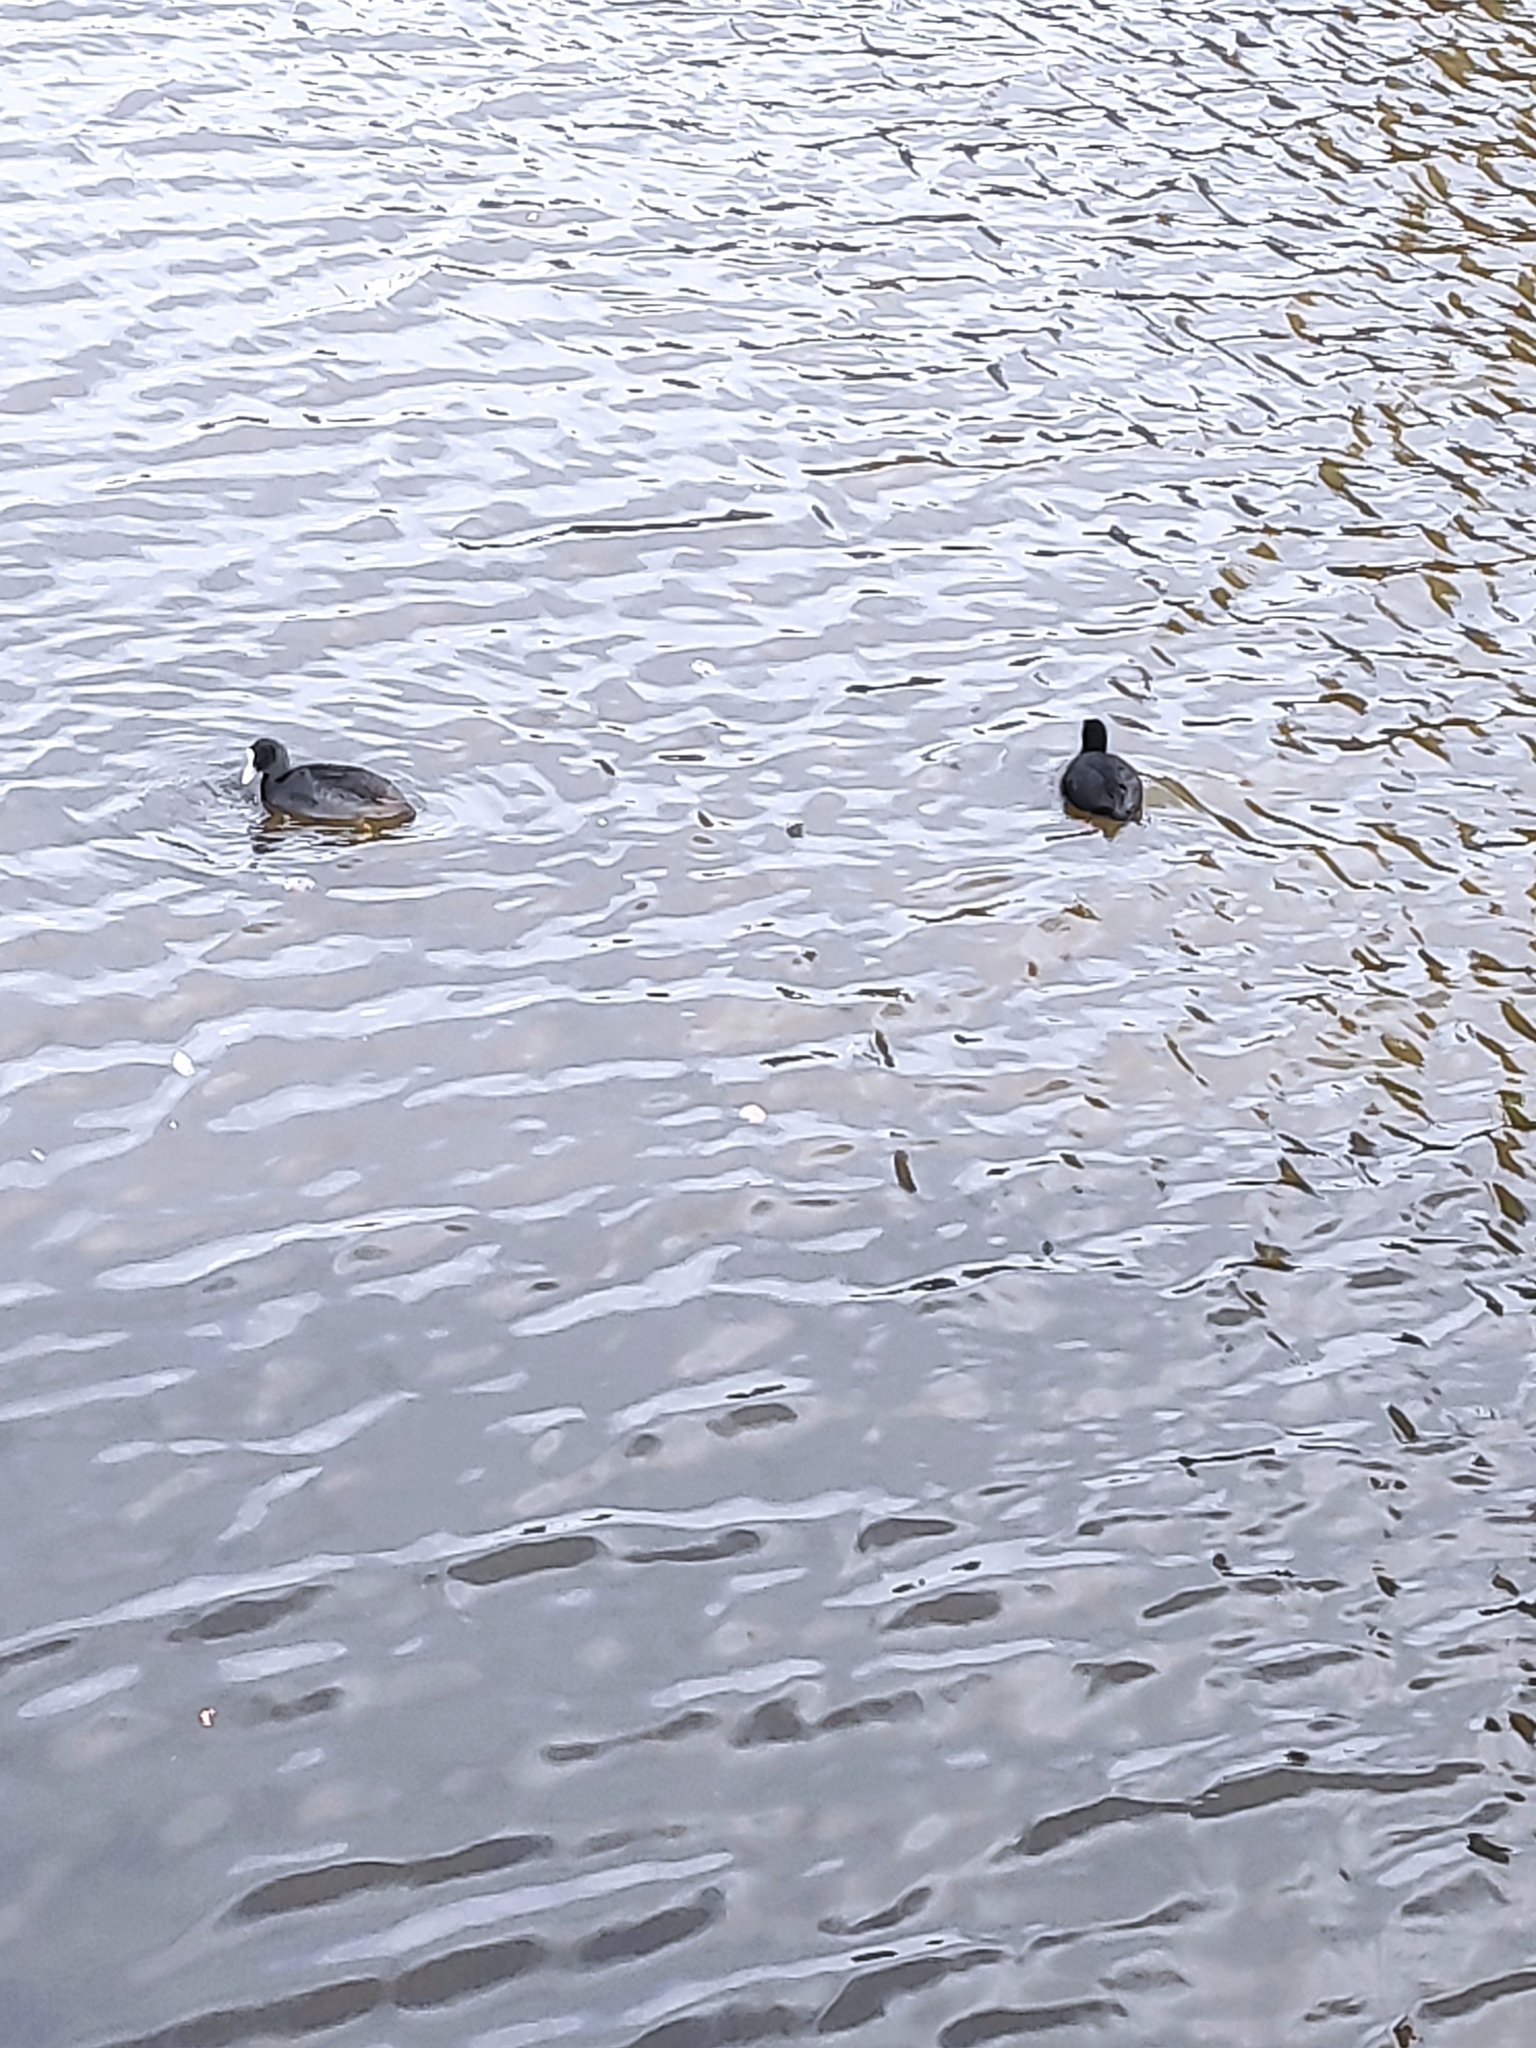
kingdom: Animalia
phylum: Chordata
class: Aves
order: Gruiformes
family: Rallidae
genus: Fulica
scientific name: Fulica atra
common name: Eurasian coot
